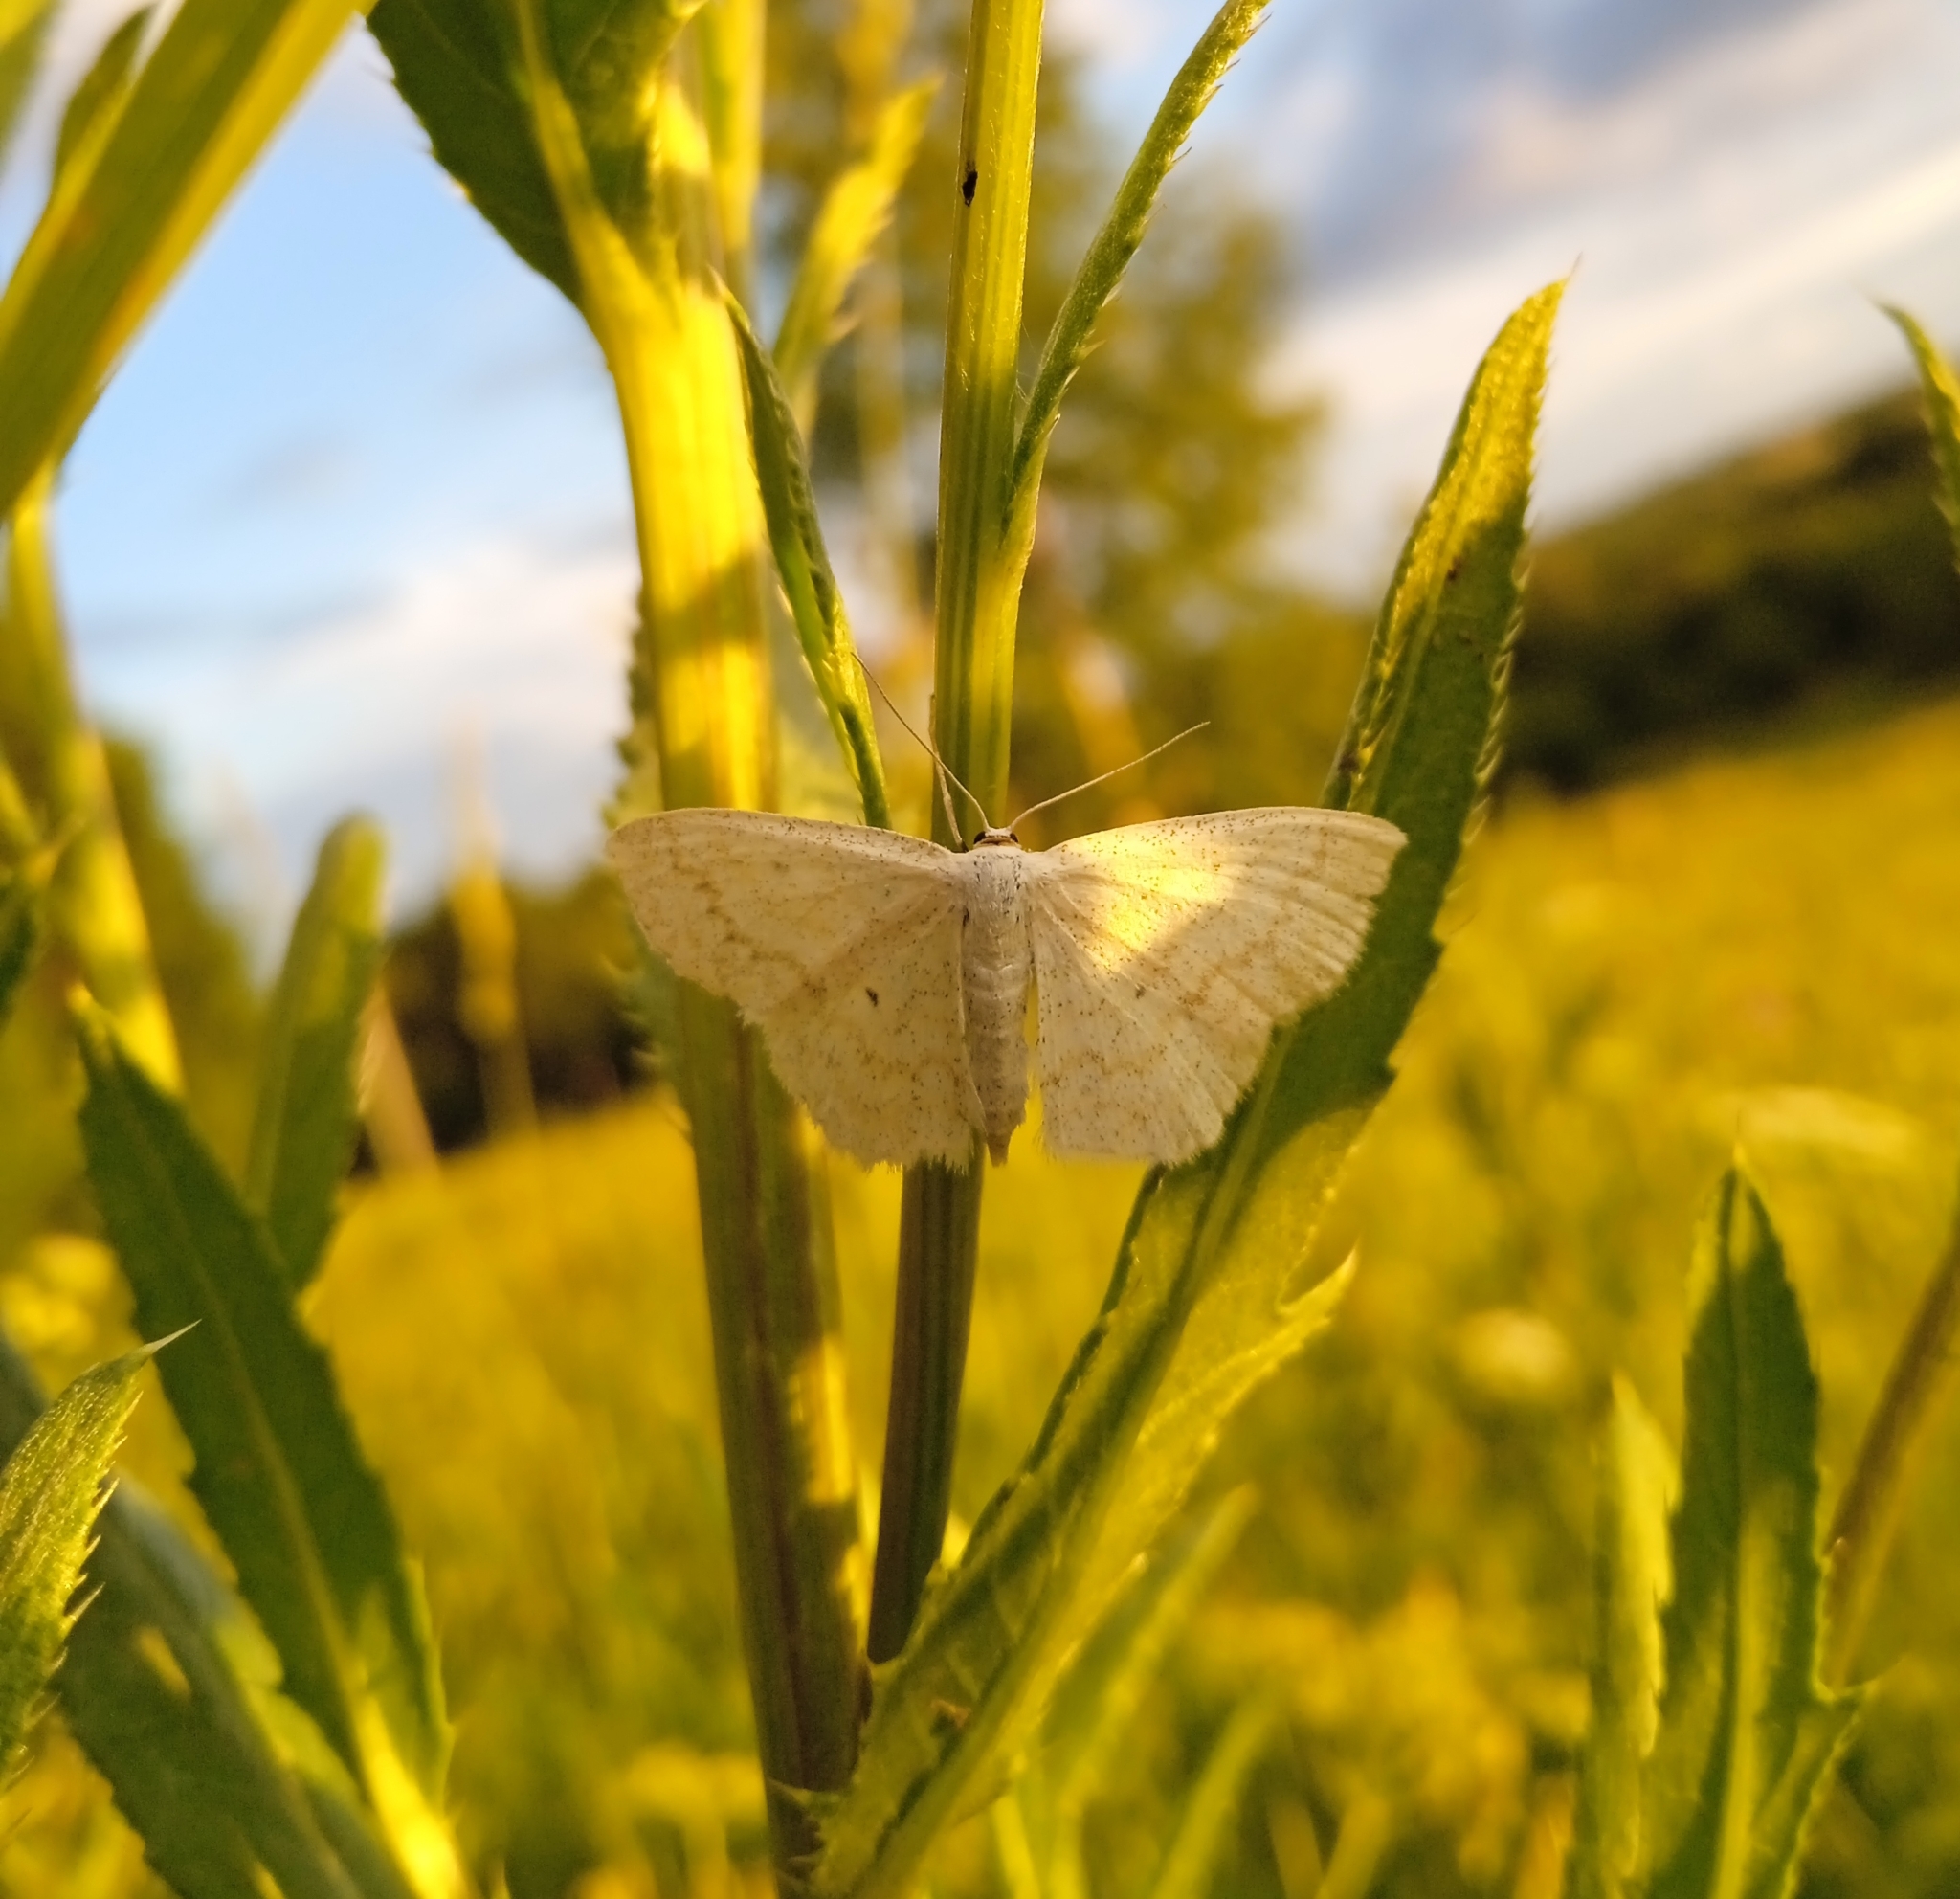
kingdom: Animalia
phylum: Arthropoda
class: Insecta
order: Lepidoptera
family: Geometridae
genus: Scopula
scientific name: Scopula immutata
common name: Lesser cream wave
